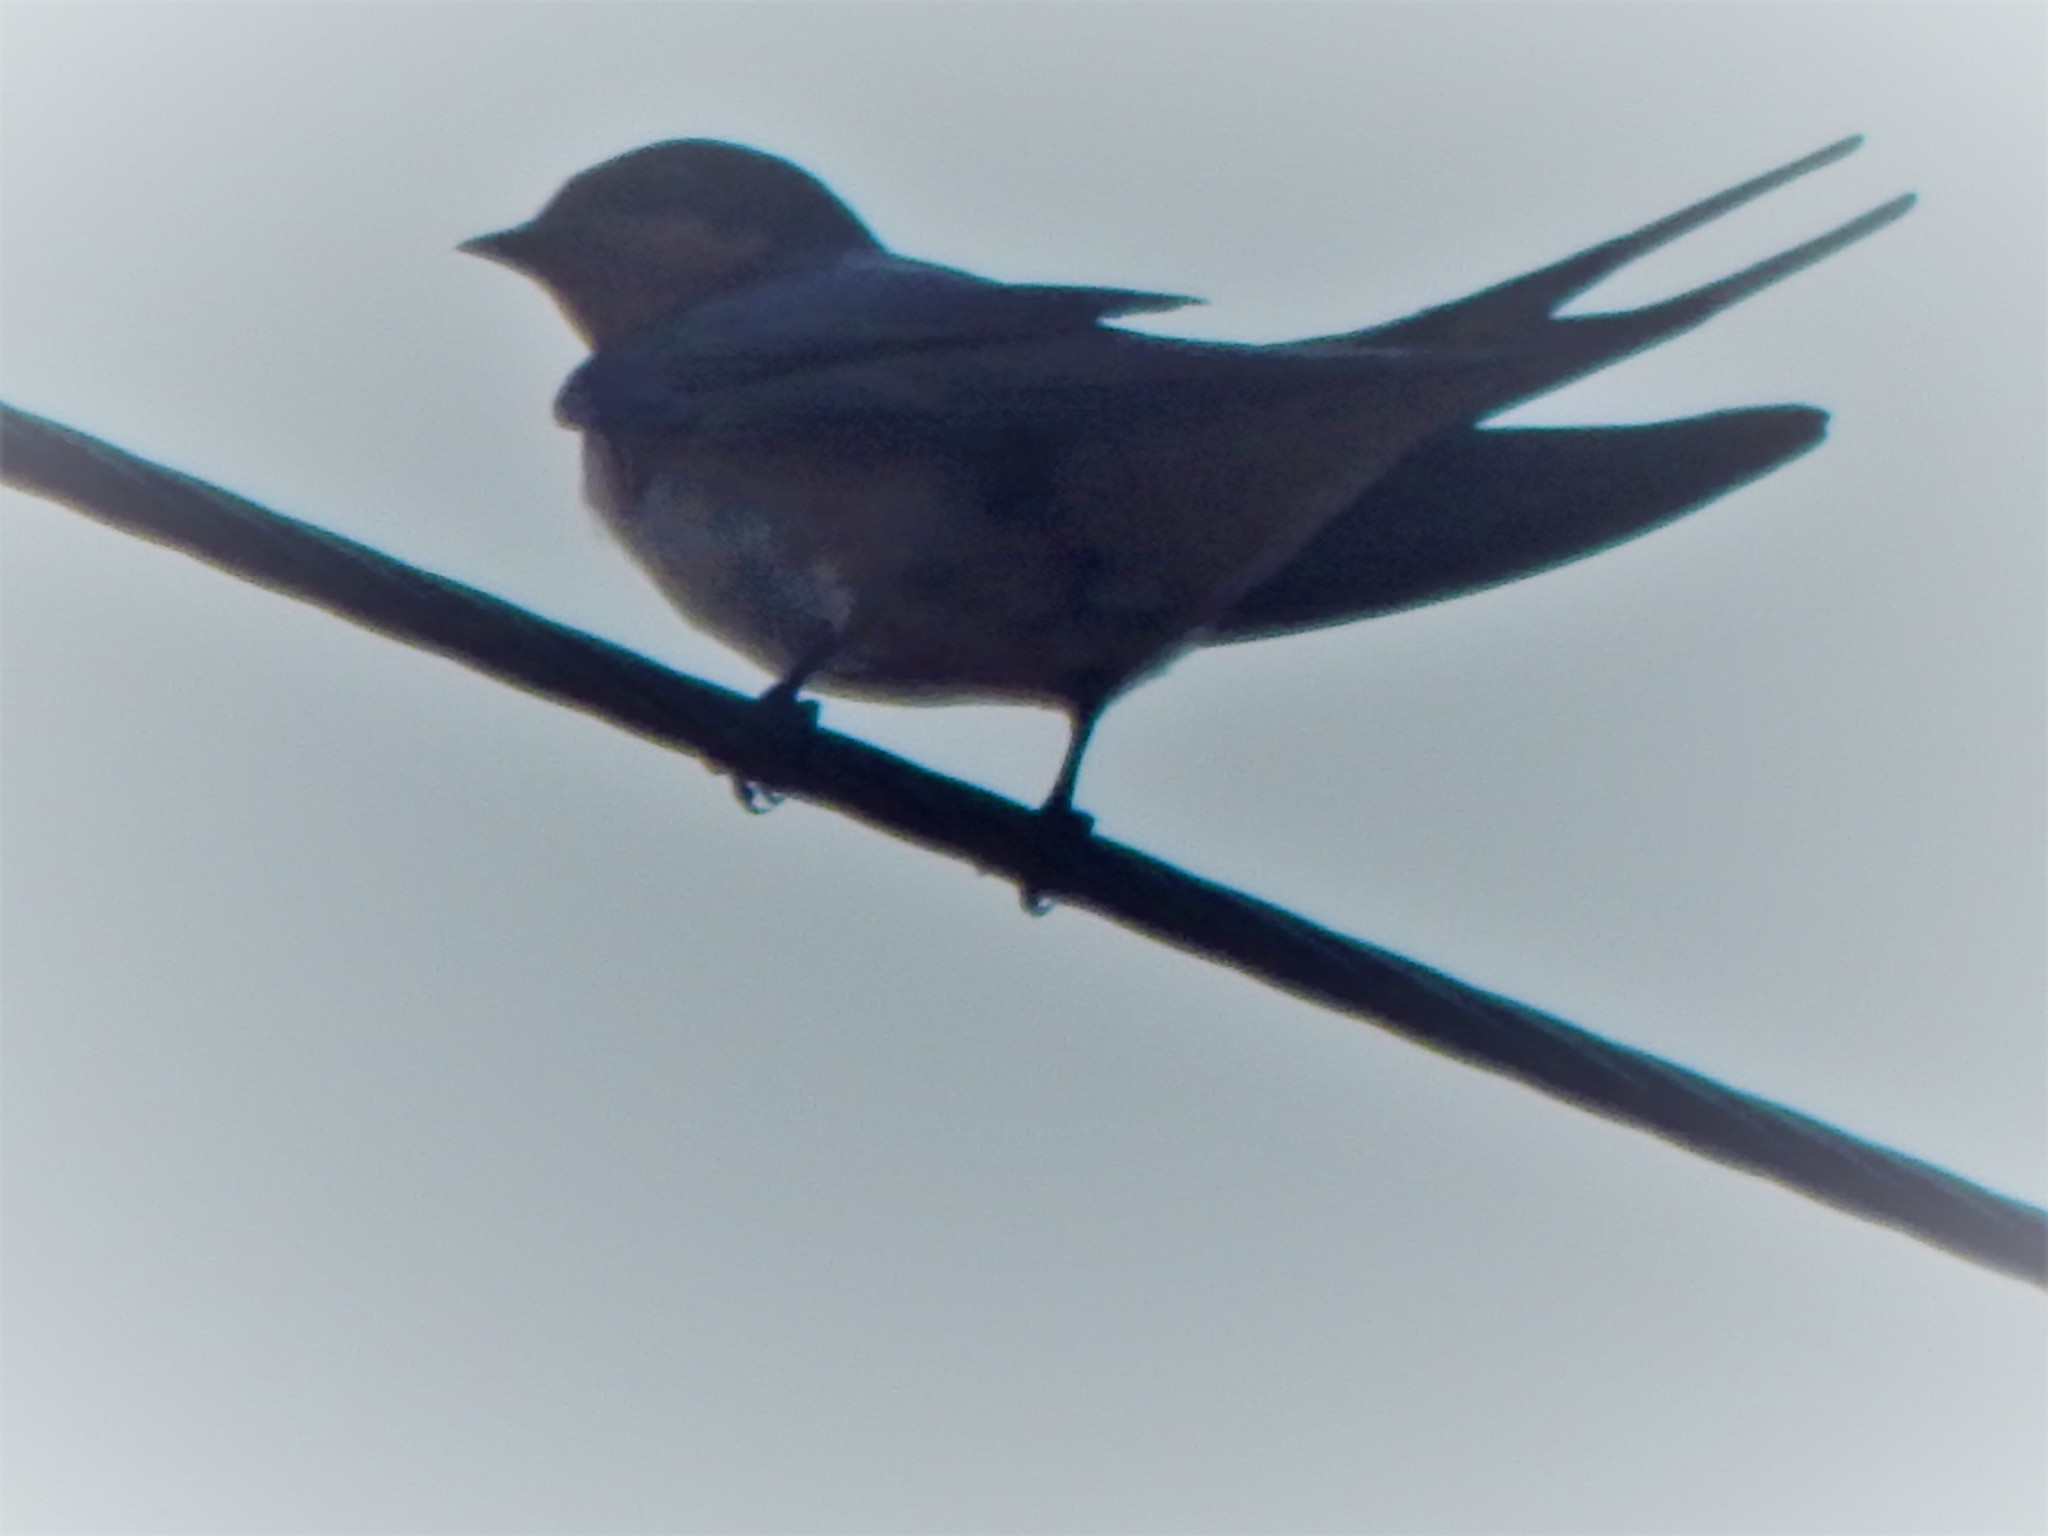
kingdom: Animalia
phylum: Chordata
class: Aves
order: Passeriformes
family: Hirundinidae
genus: Hirundo
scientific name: Hirundo rustica
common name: Barn swallow
